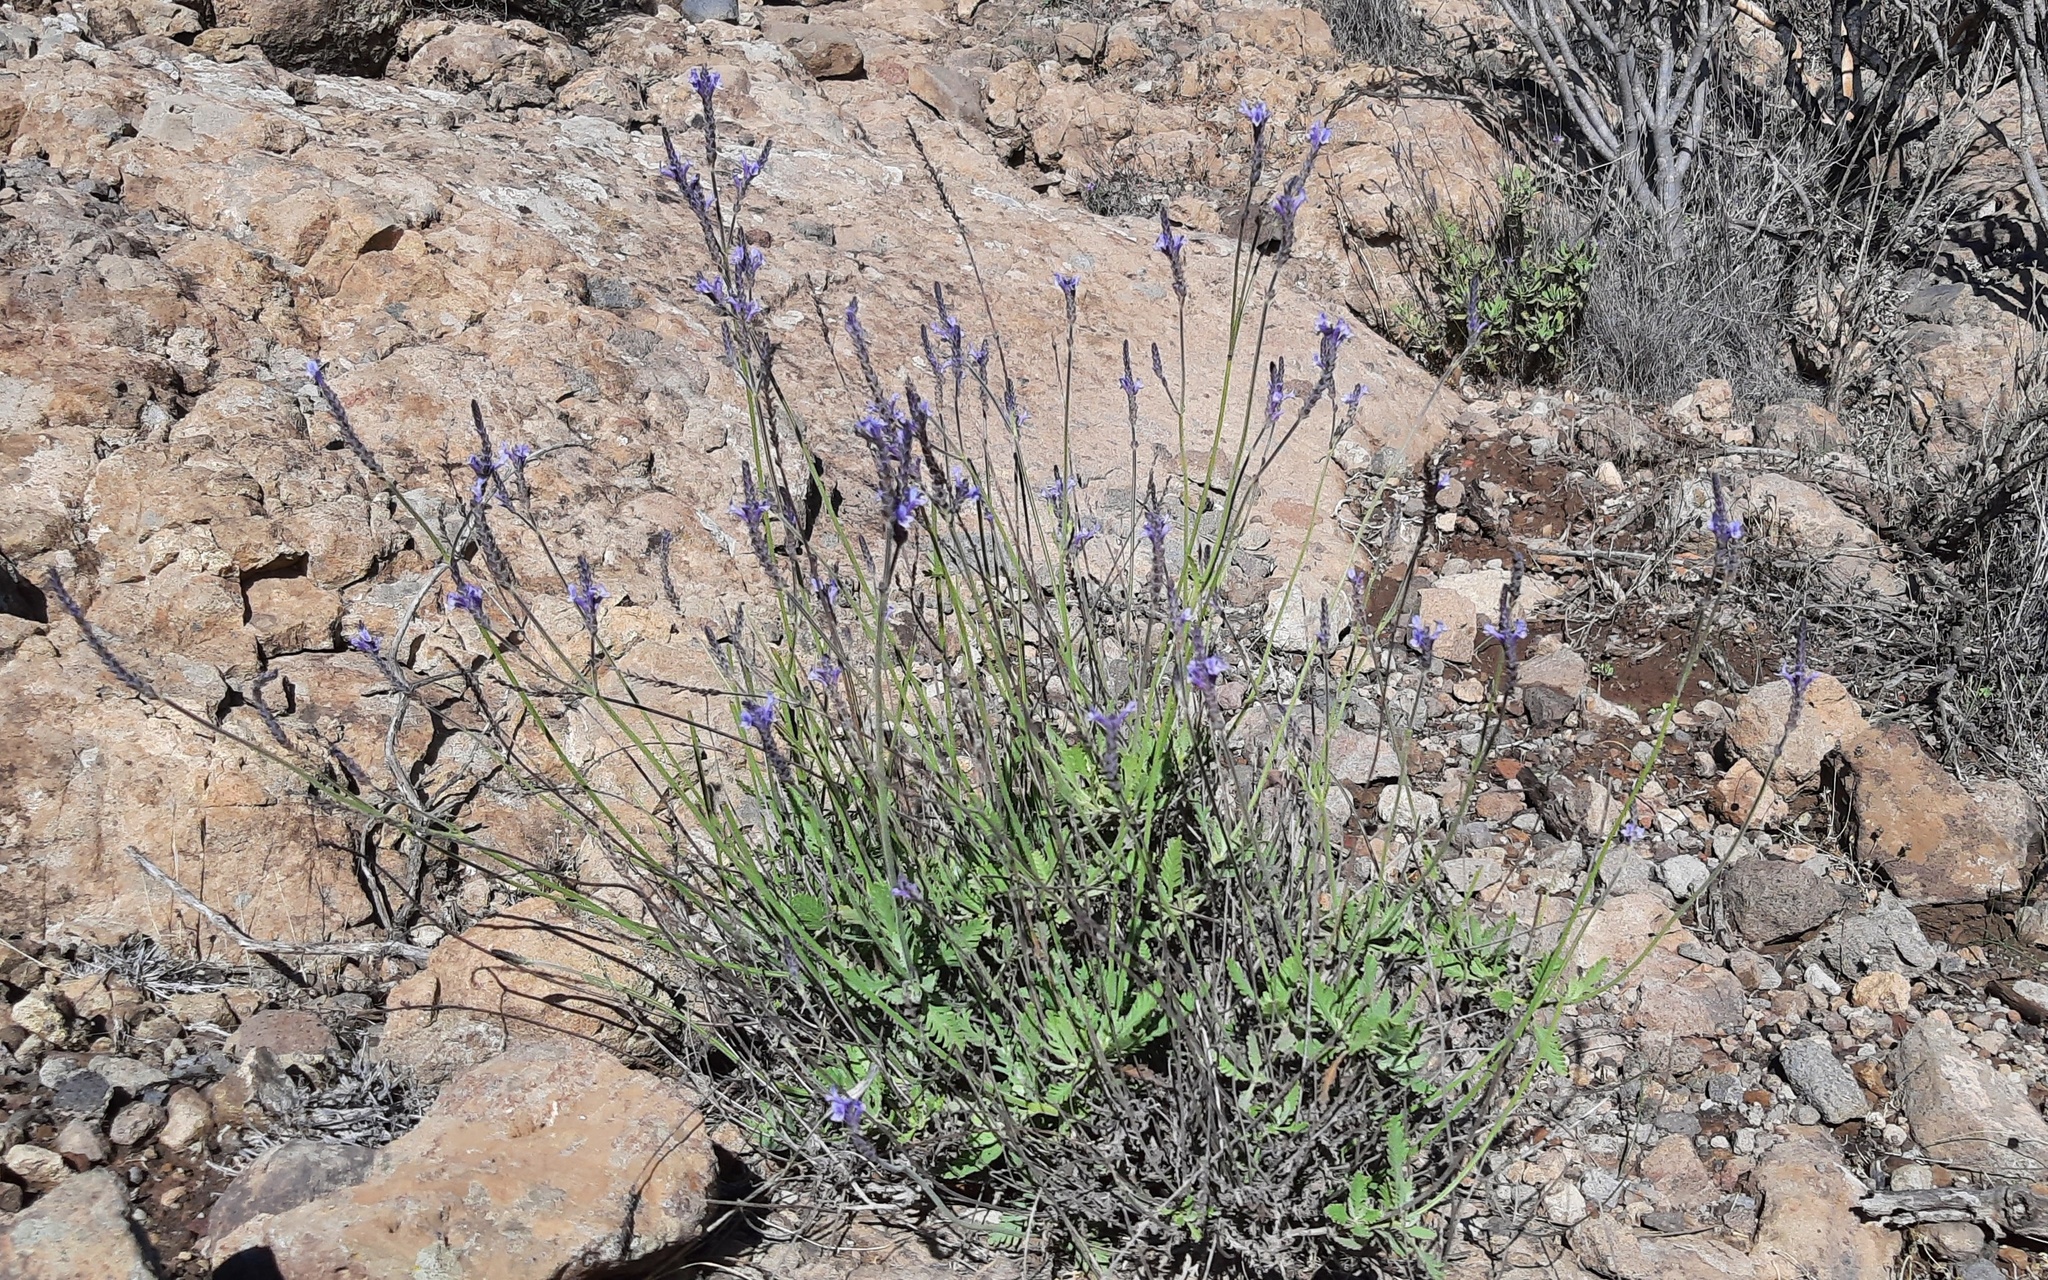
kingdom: Plantae
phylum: Tracheophyta
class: Magnoliopsida
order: Lamiales
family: Lamiaceae
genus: Lavandula
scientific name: Lavandula minutolii
